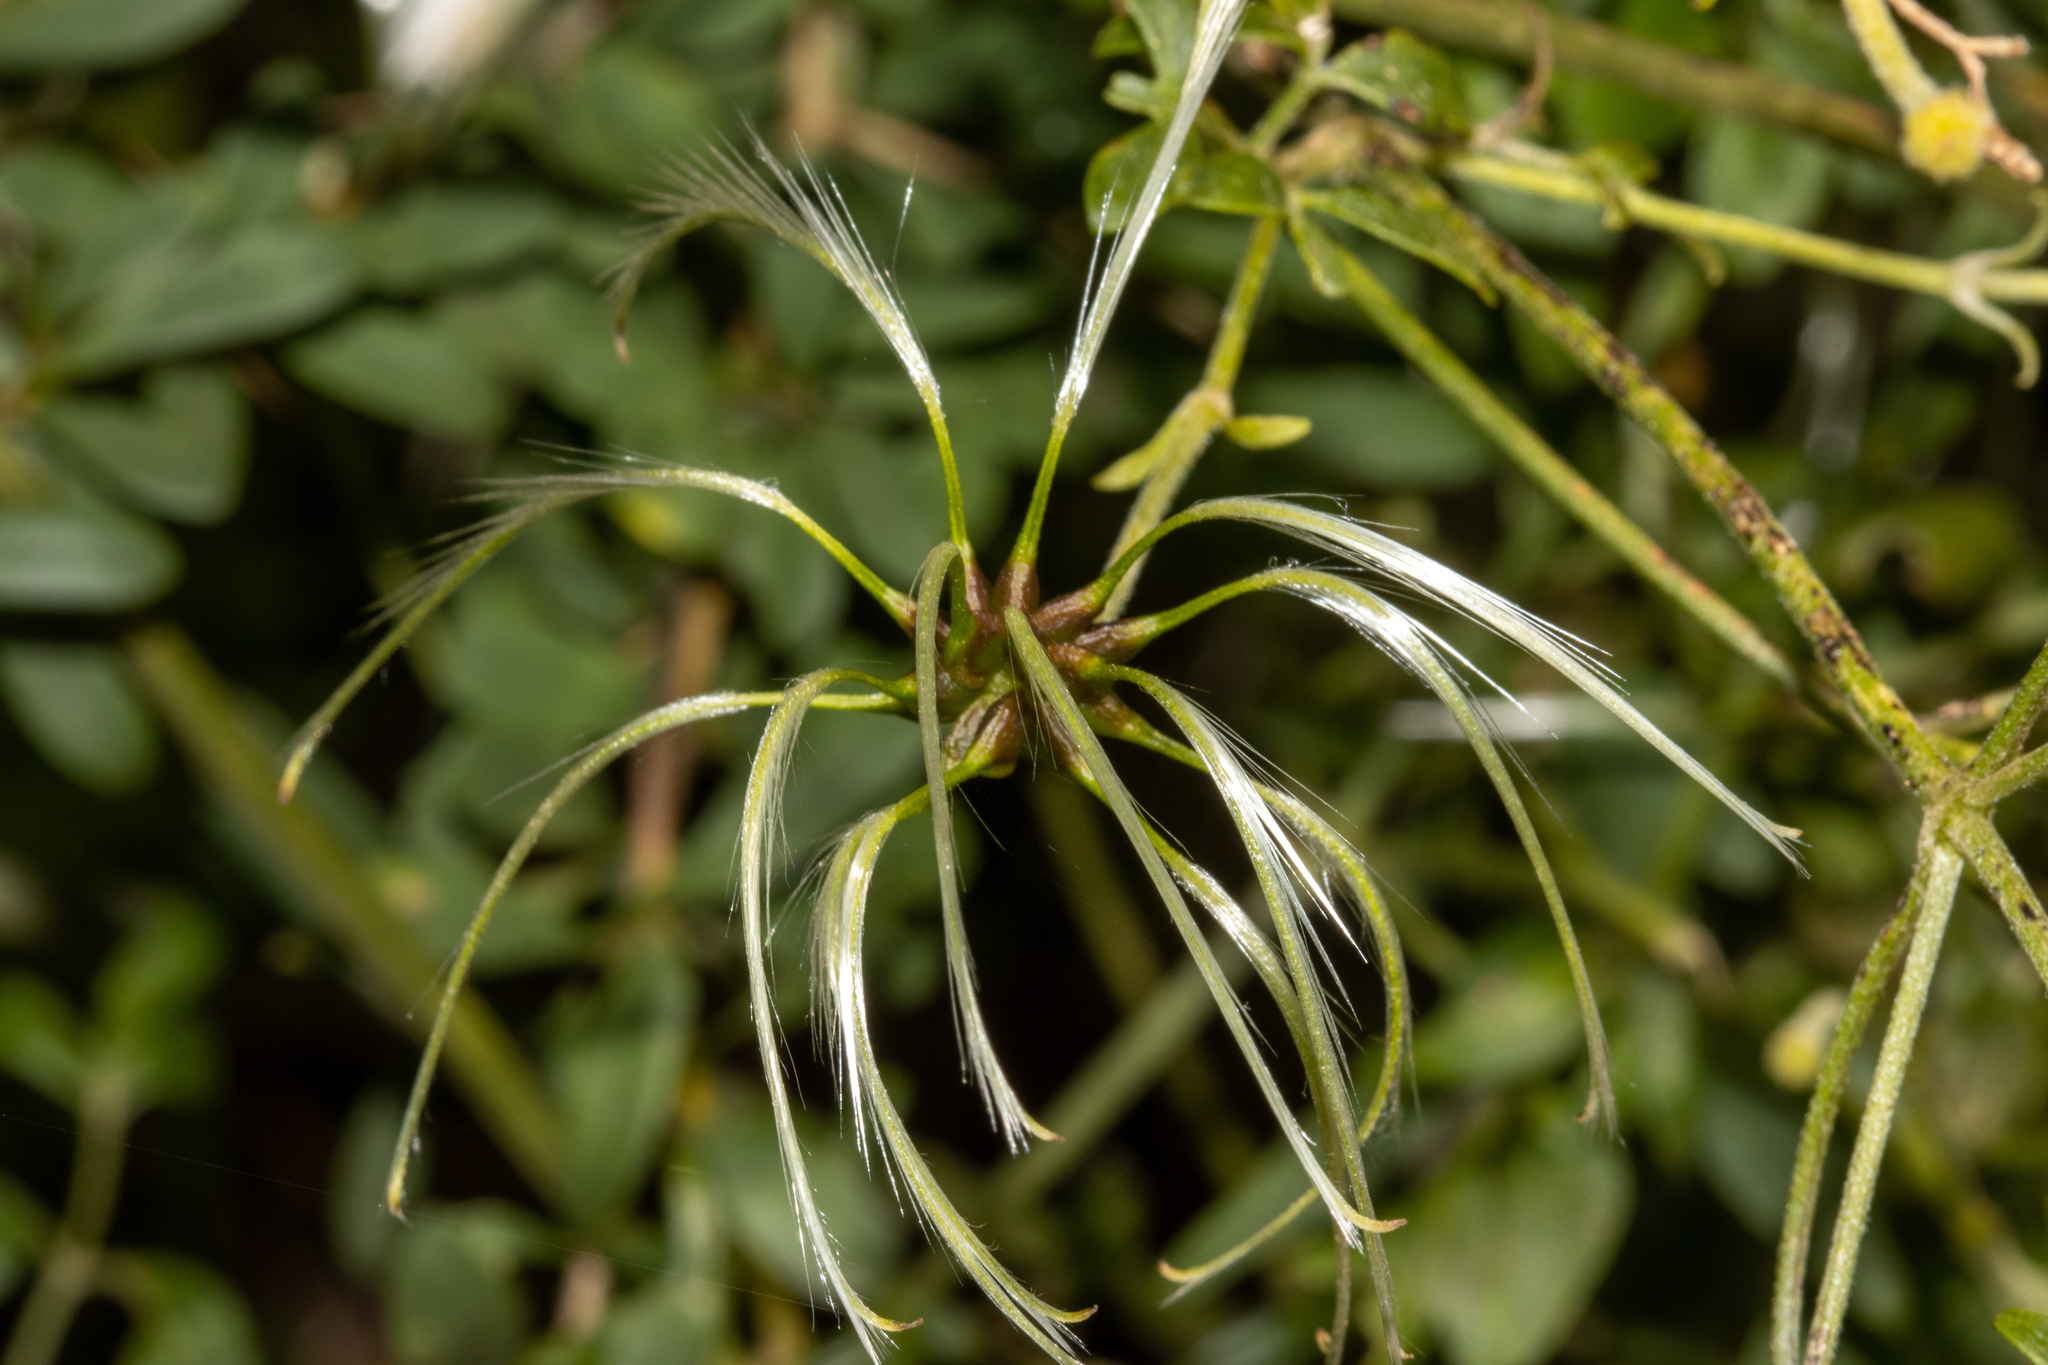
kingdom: Plantae
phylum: Tracheophyta
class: Magnoliopsida
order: Ranunculales
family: Ranunculaceae
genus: Clematis
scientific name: Clematis microphylla
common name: Headachevine
